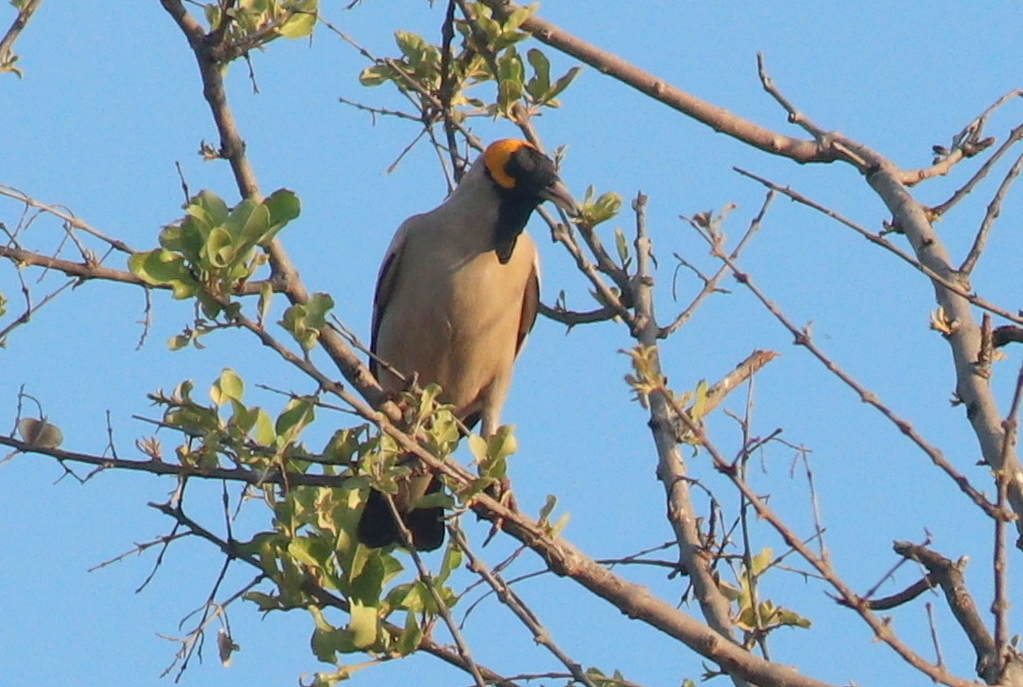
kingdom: Animalia
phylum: Chordata
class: Aves
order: Passeriformes
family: Sturnidae
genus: Creatophora
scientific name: Creatophora cinerea
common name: Wattled starling
